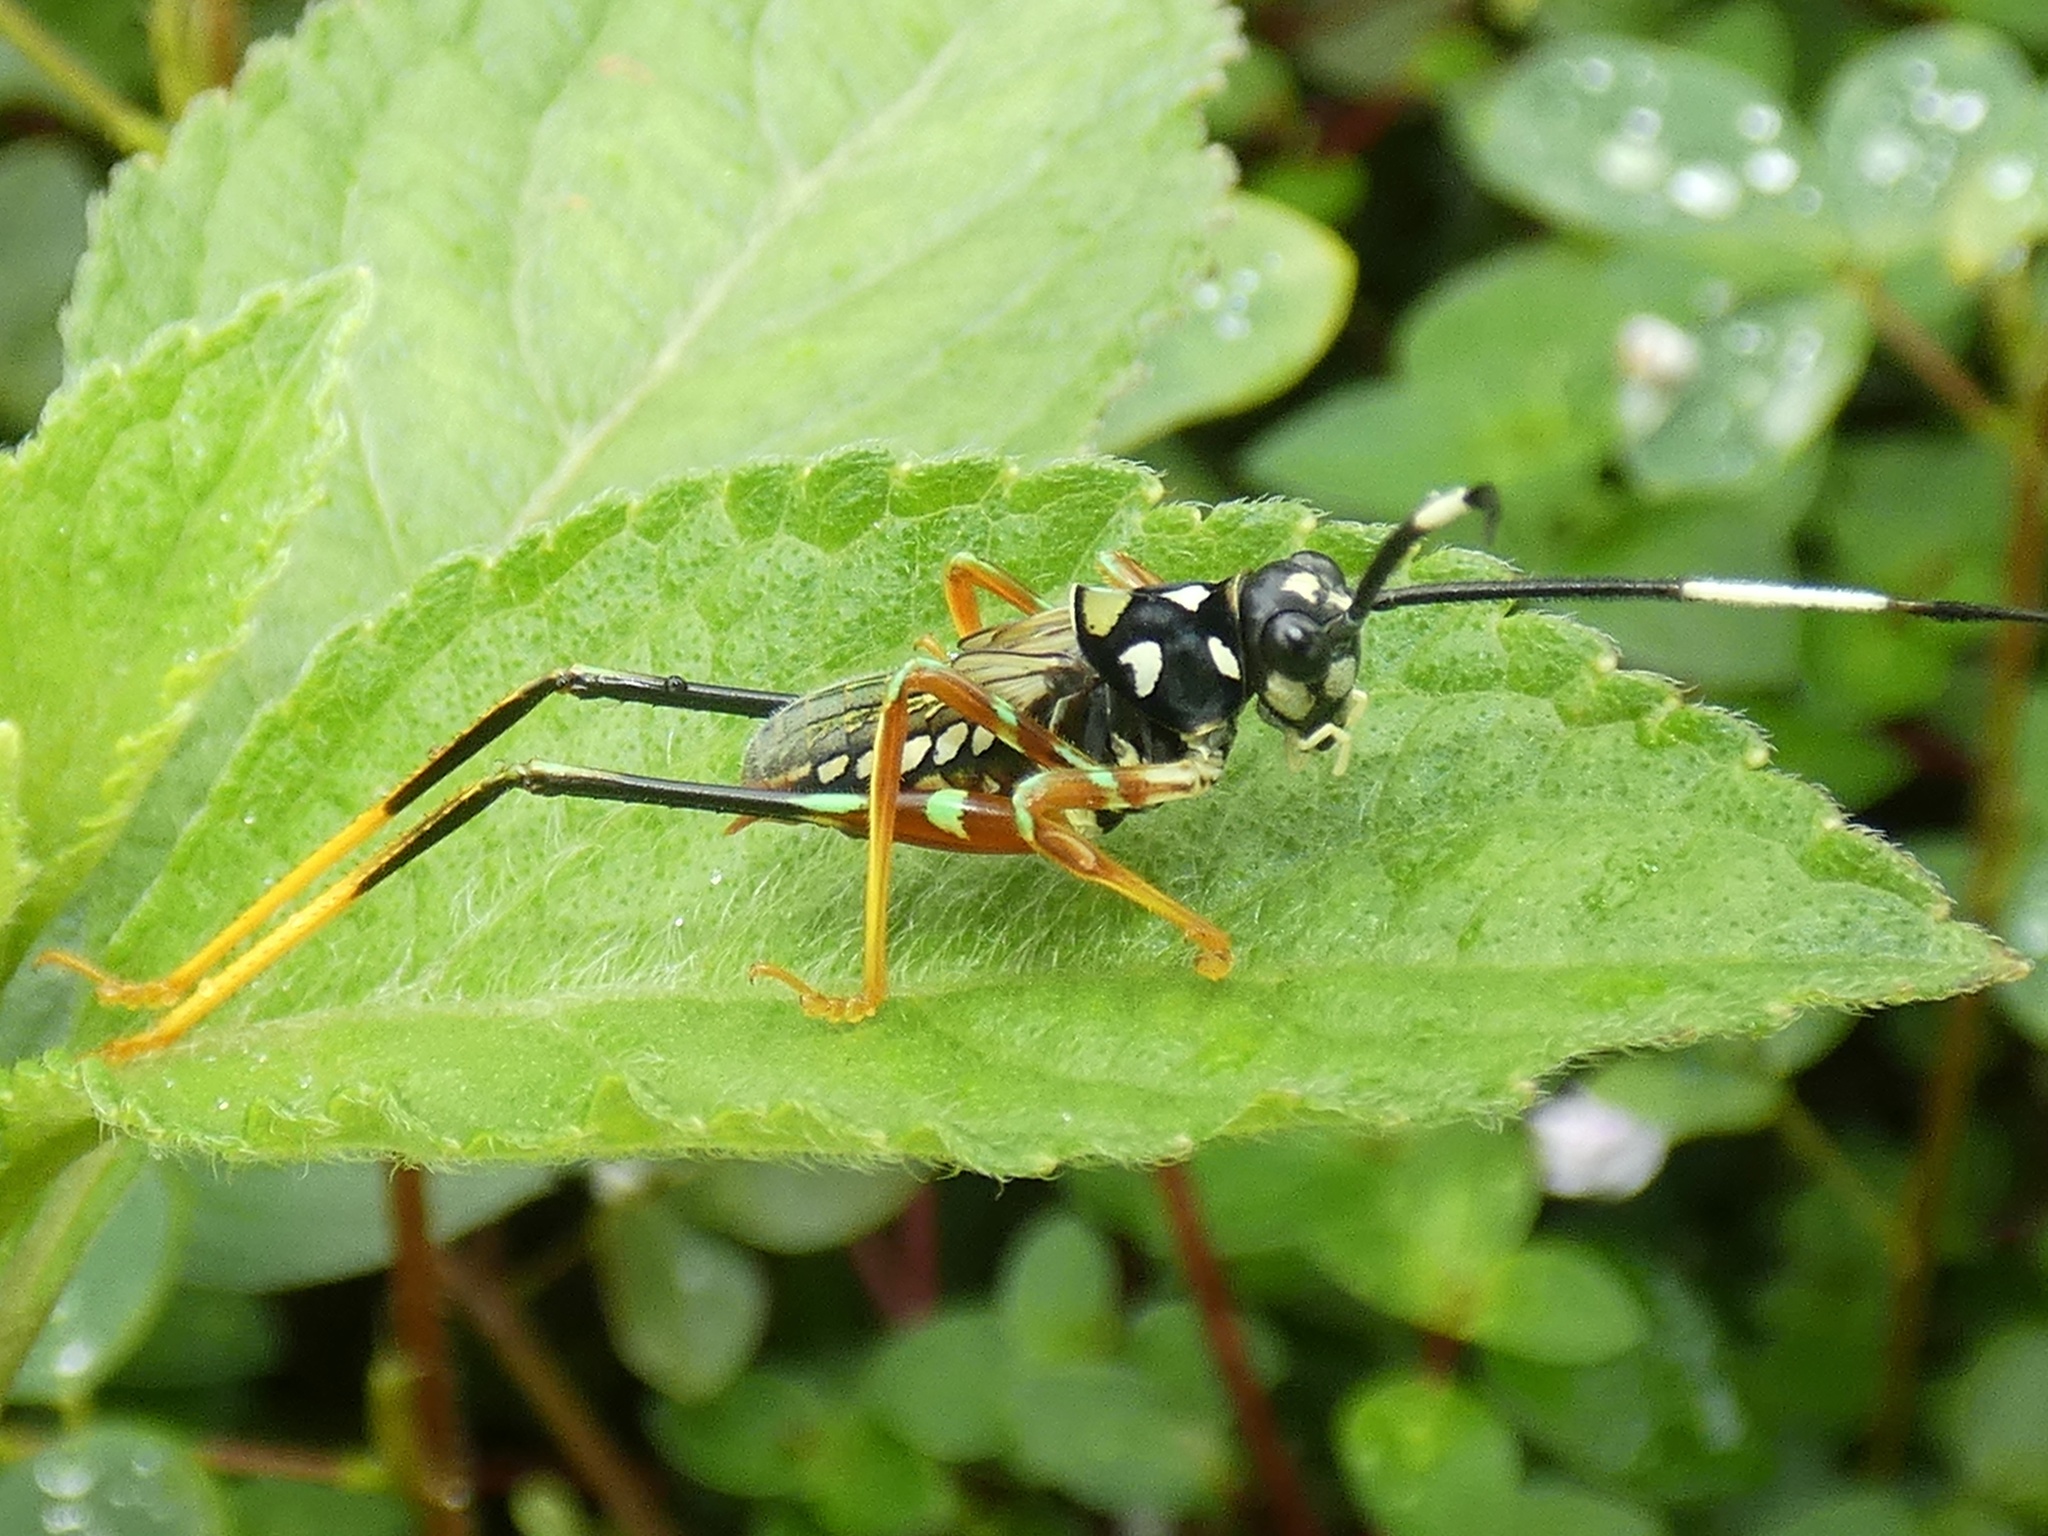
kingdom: Animalia
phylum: Arthropoda
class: Insecta
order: Orthoptera
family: Tettigoniidae
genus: Aganacris
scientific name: Aganacris velutina
